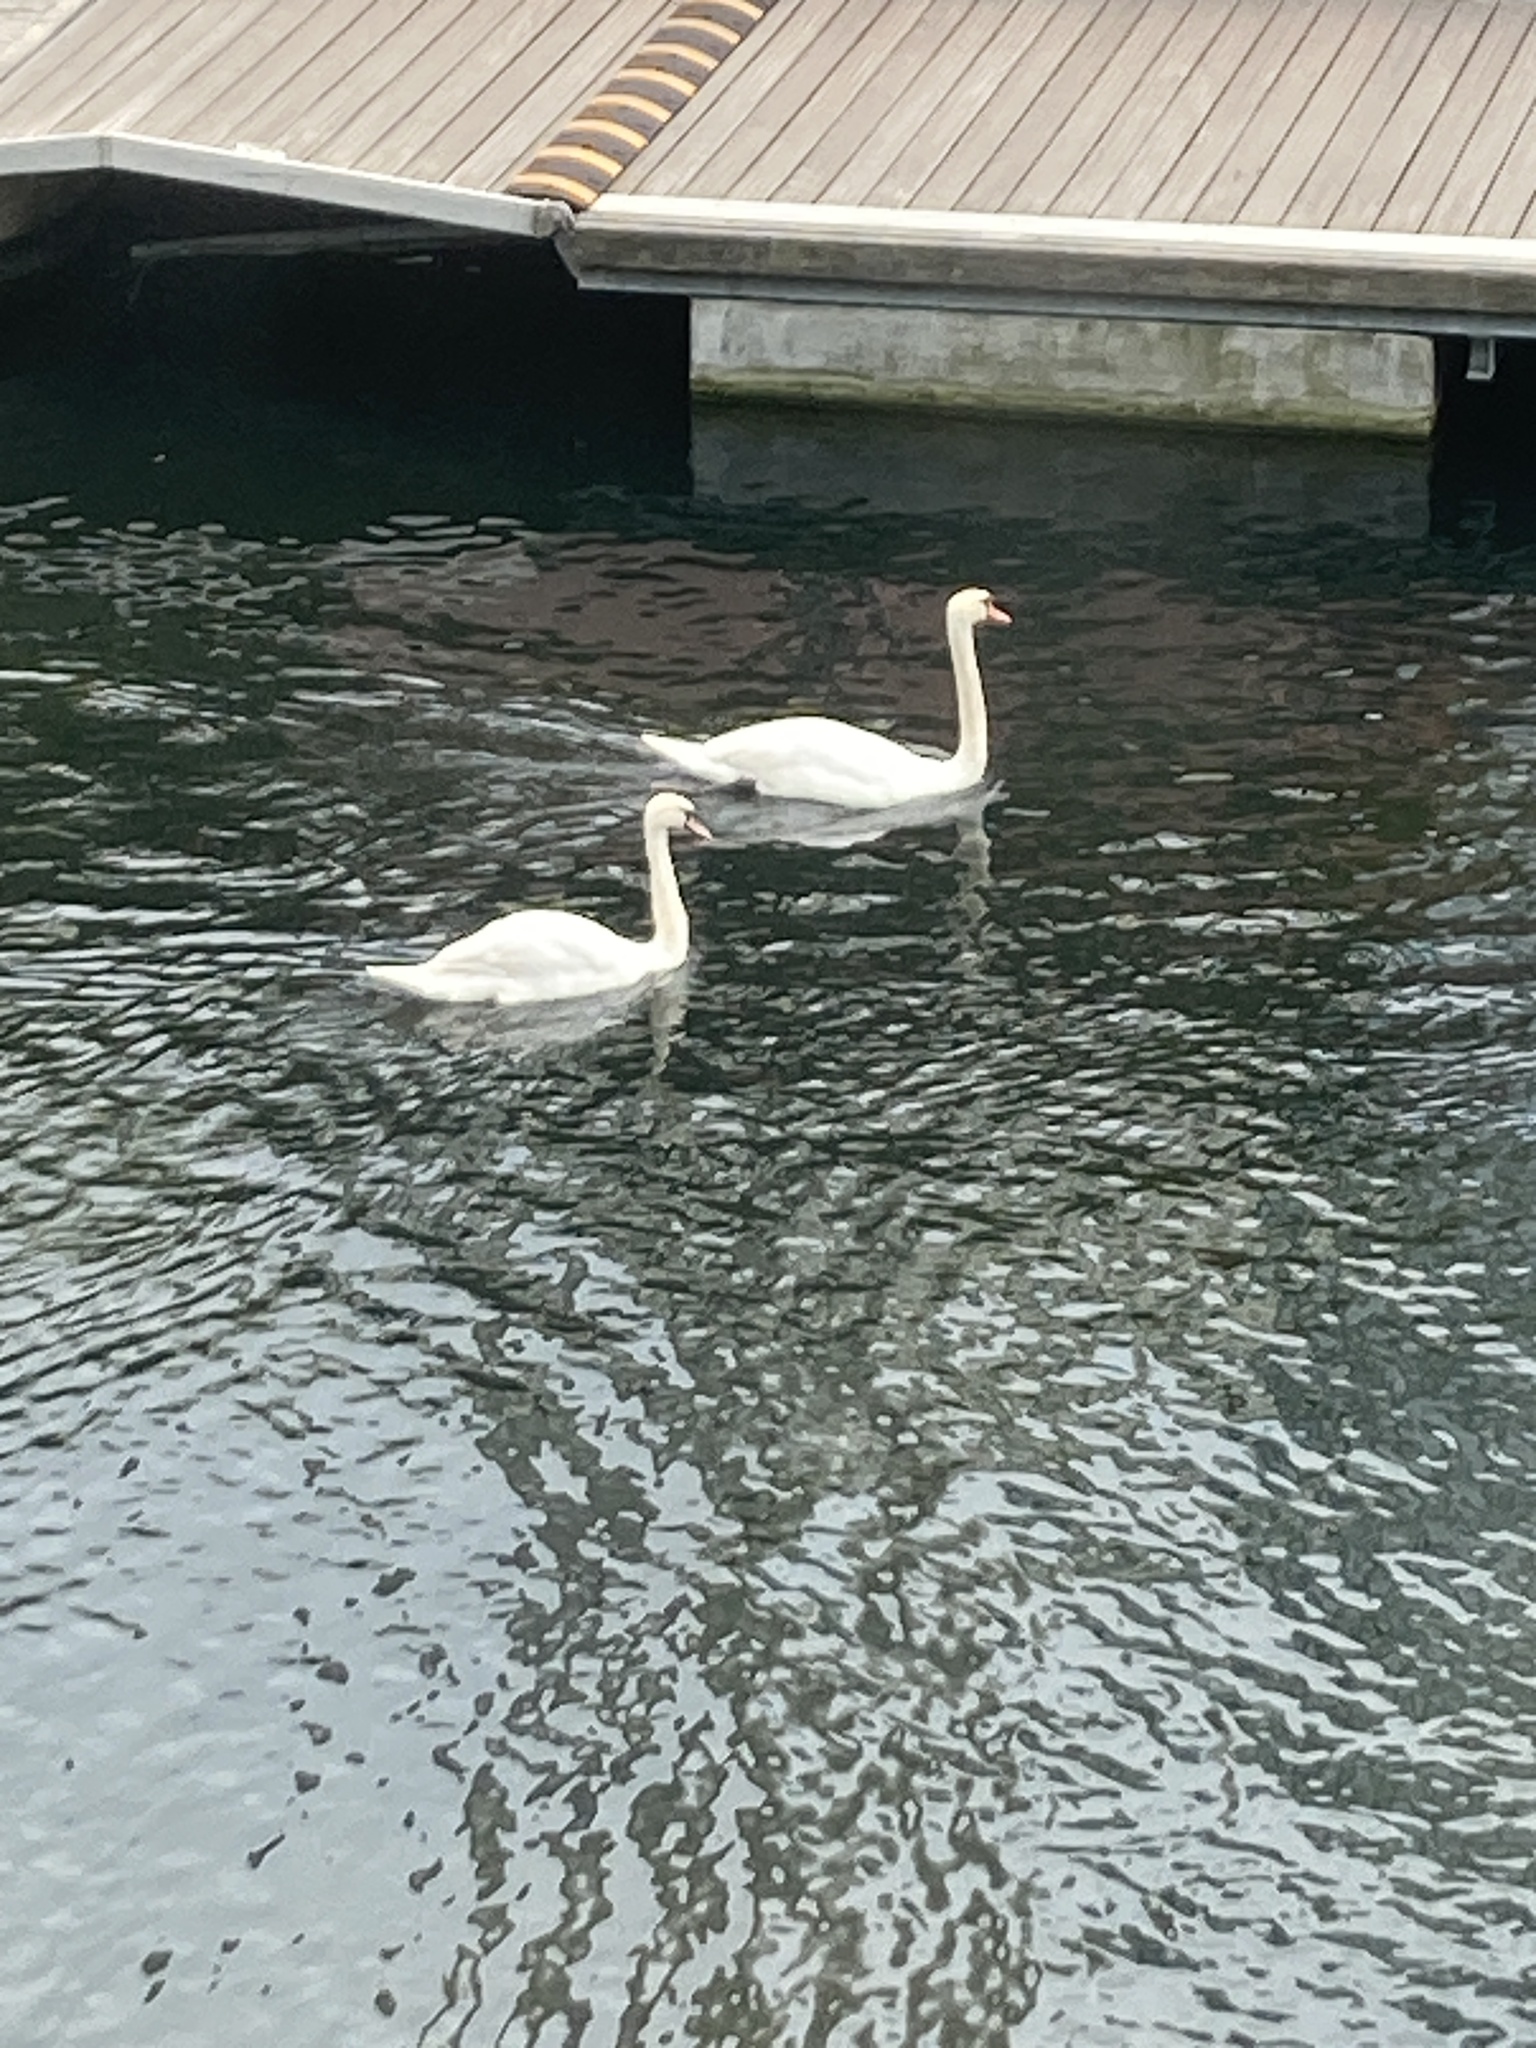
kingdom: Animalia
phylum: Chordata
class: Aves
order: Anseriformes
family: Anatidae
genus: Cygnus
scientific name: Cygnus olor
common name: Mute swan
